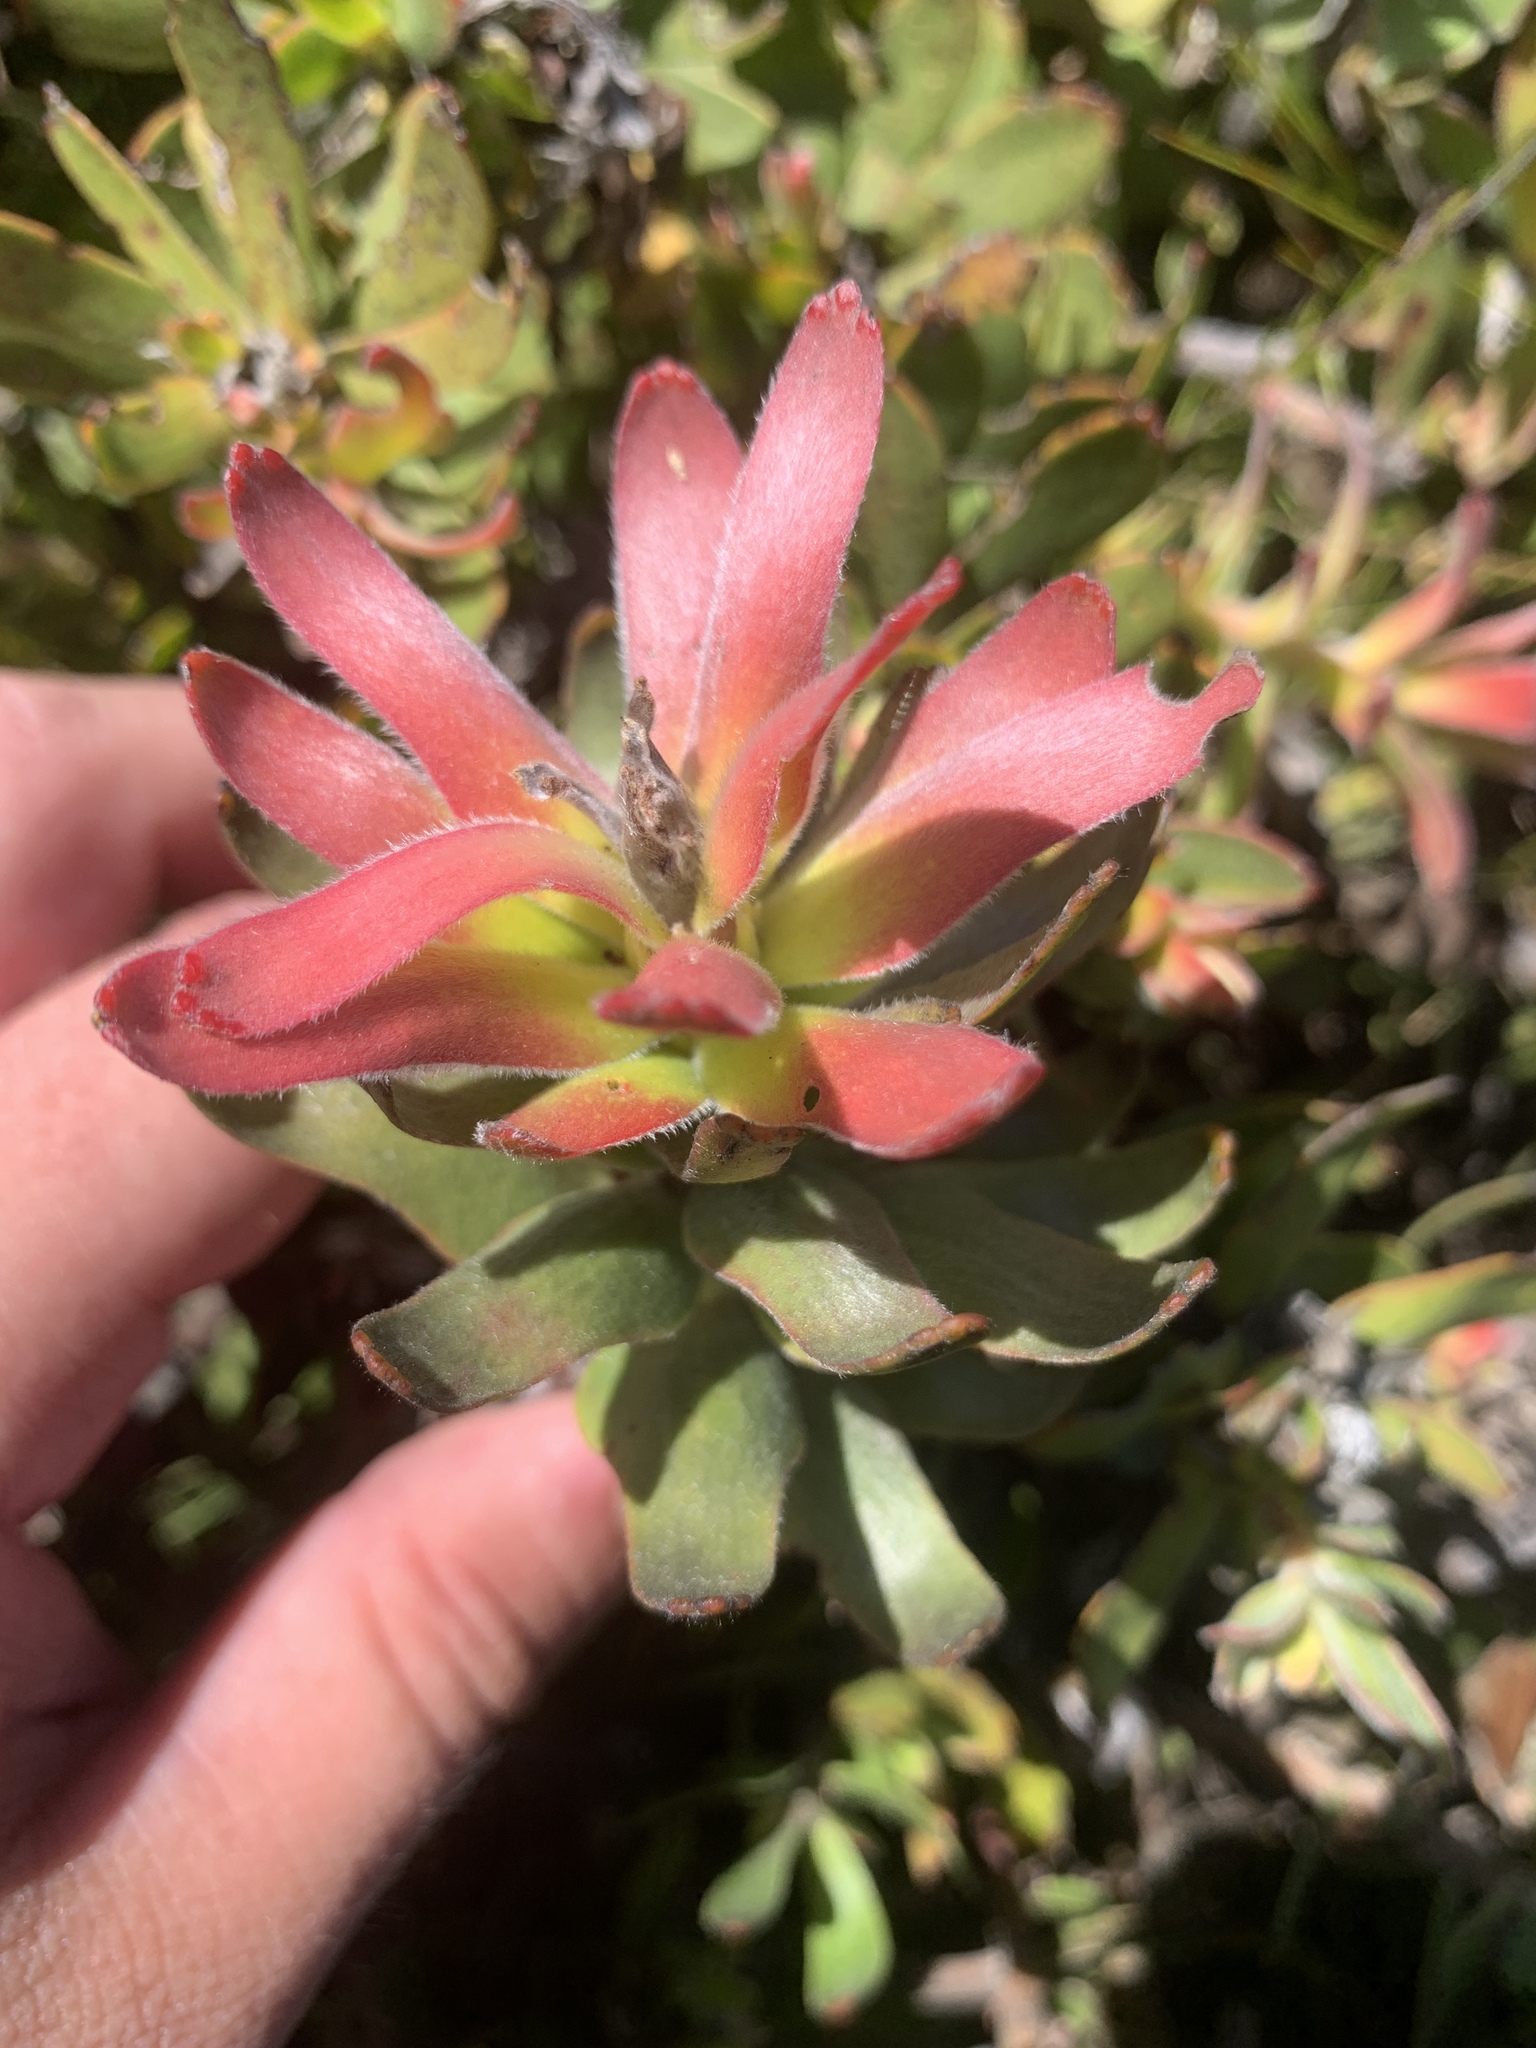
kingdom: Plantae
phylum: Tracheophyta
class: Magnoliopsida
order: Proteales
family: Proteaceae
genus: Mimetes
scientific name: Mimetes cucullatus
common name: Common pagoda
